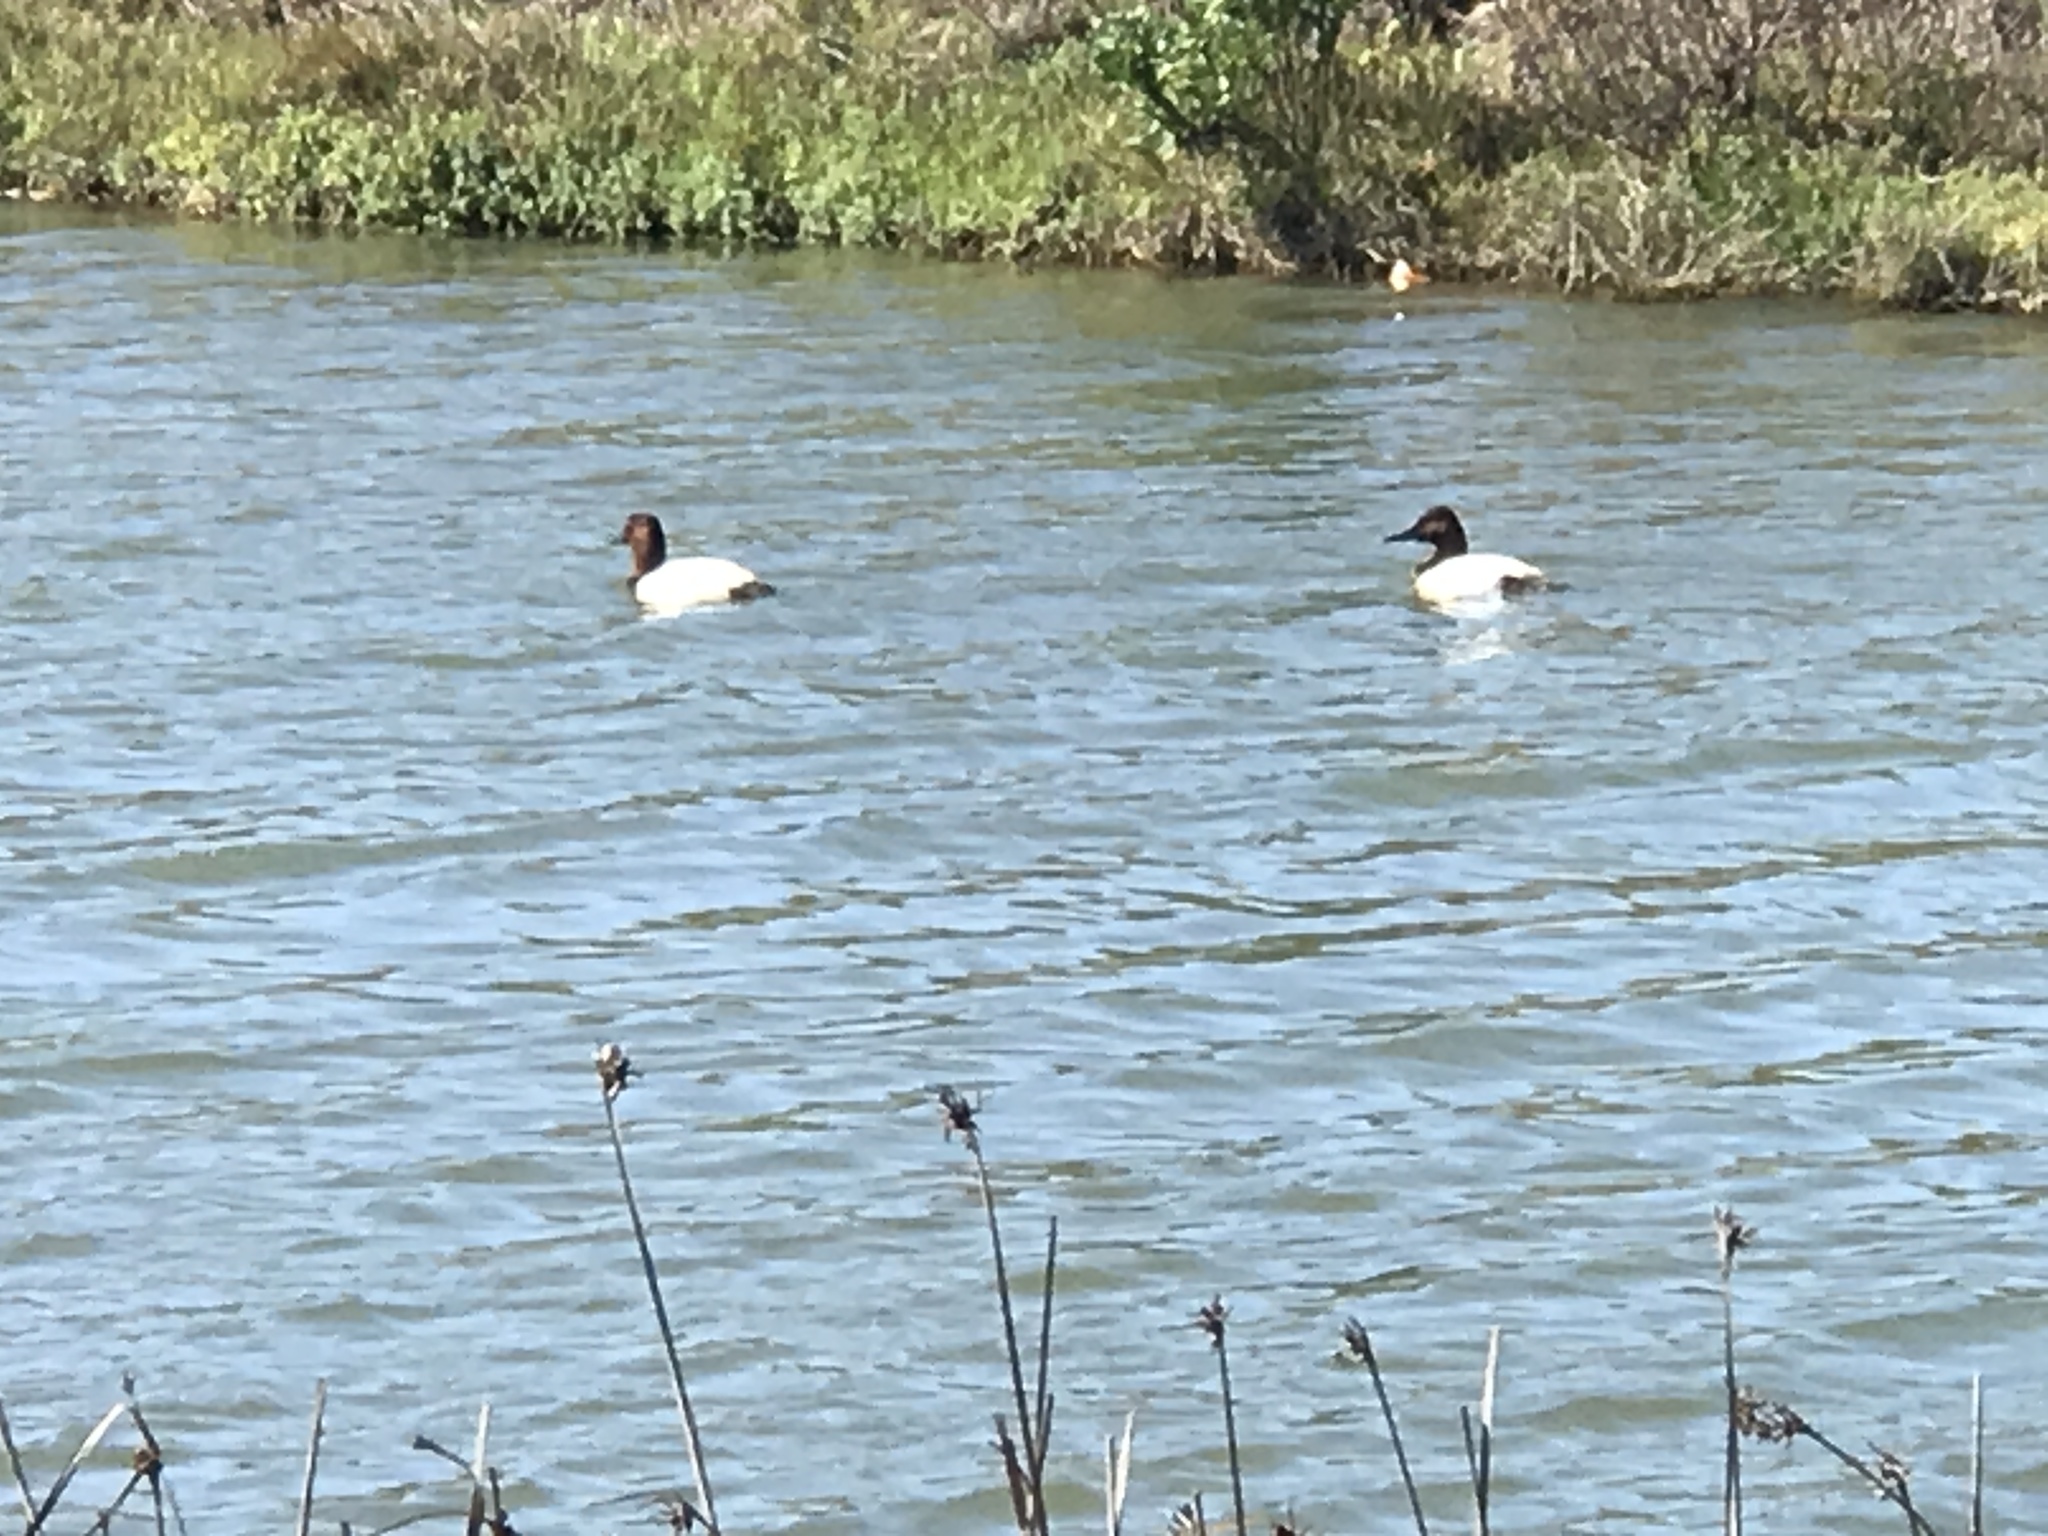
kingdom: Animalia
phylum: Chordata
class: Aves
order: Anseriformes
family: Anatidae
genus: Aythya
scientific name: Aythya valisineria
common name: Canvasback
